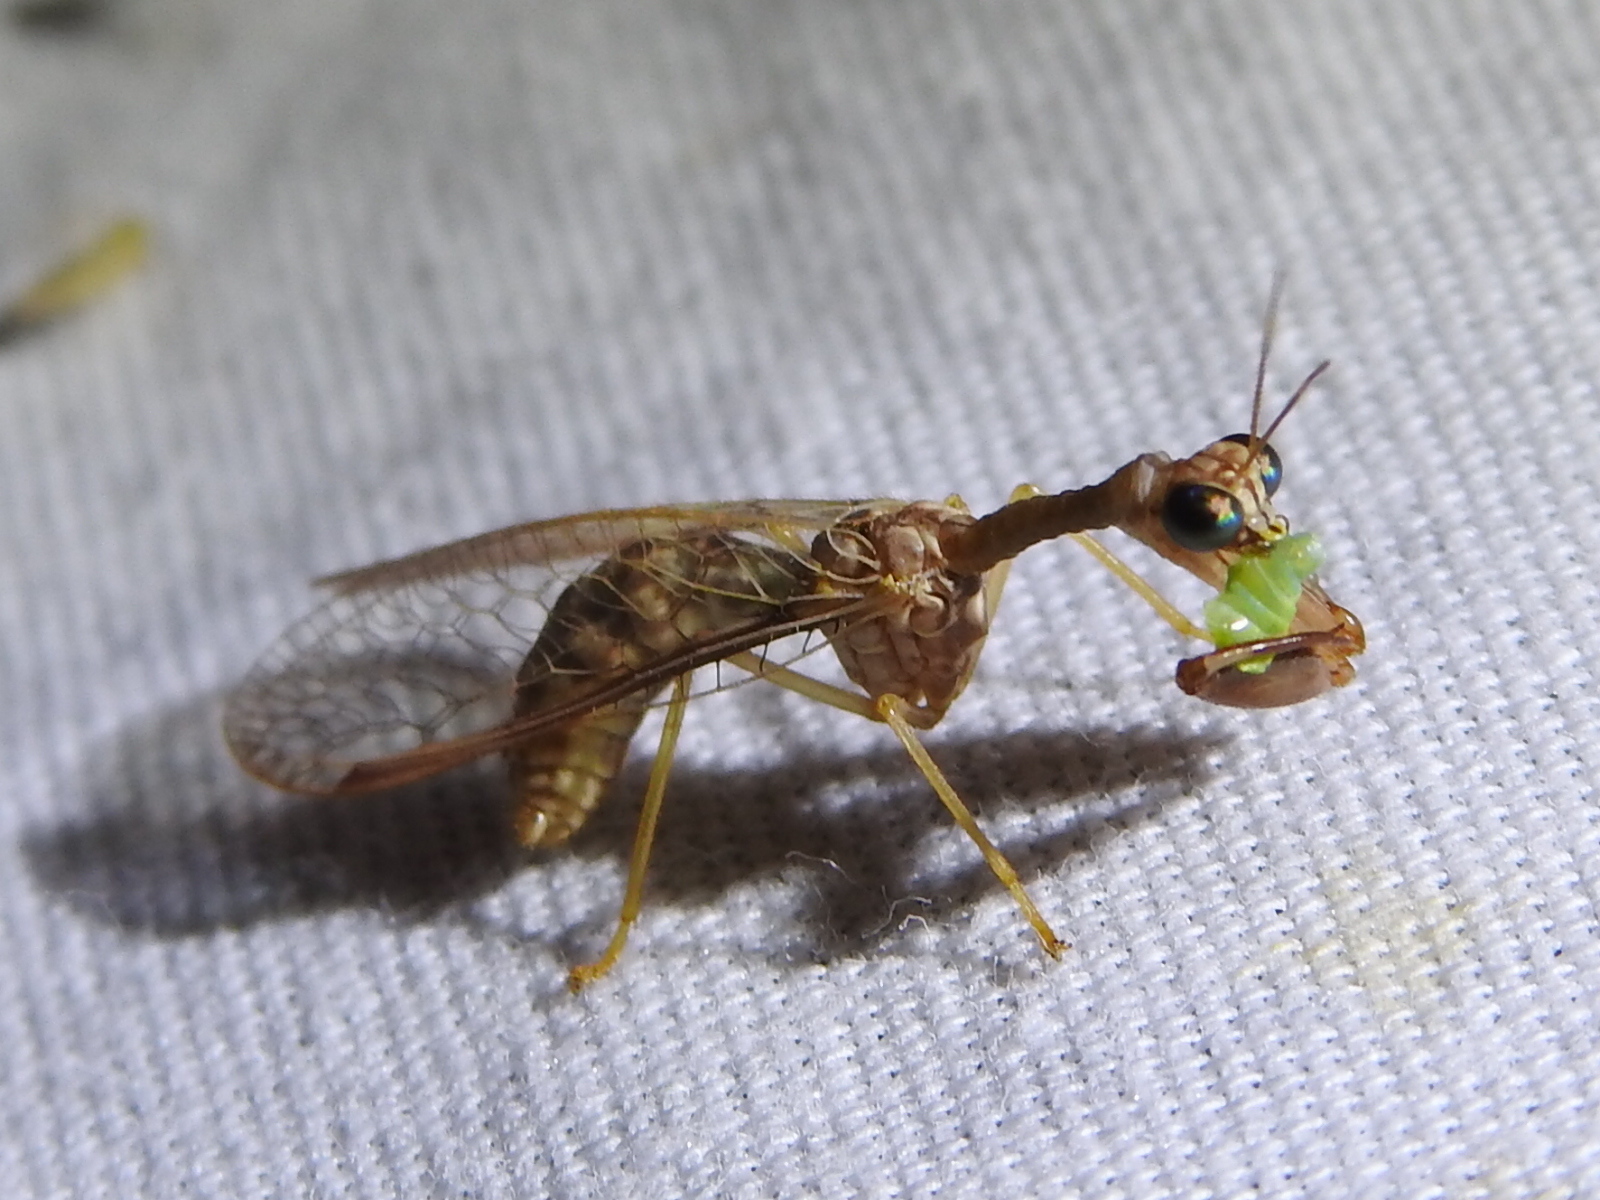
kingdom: Animalia
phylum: Arthropoda
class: Insecta
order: Neuroptera
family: Mantispidae
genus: Dicromantispa
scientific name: Dicromantispa sayi
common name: Say's mantidfly
